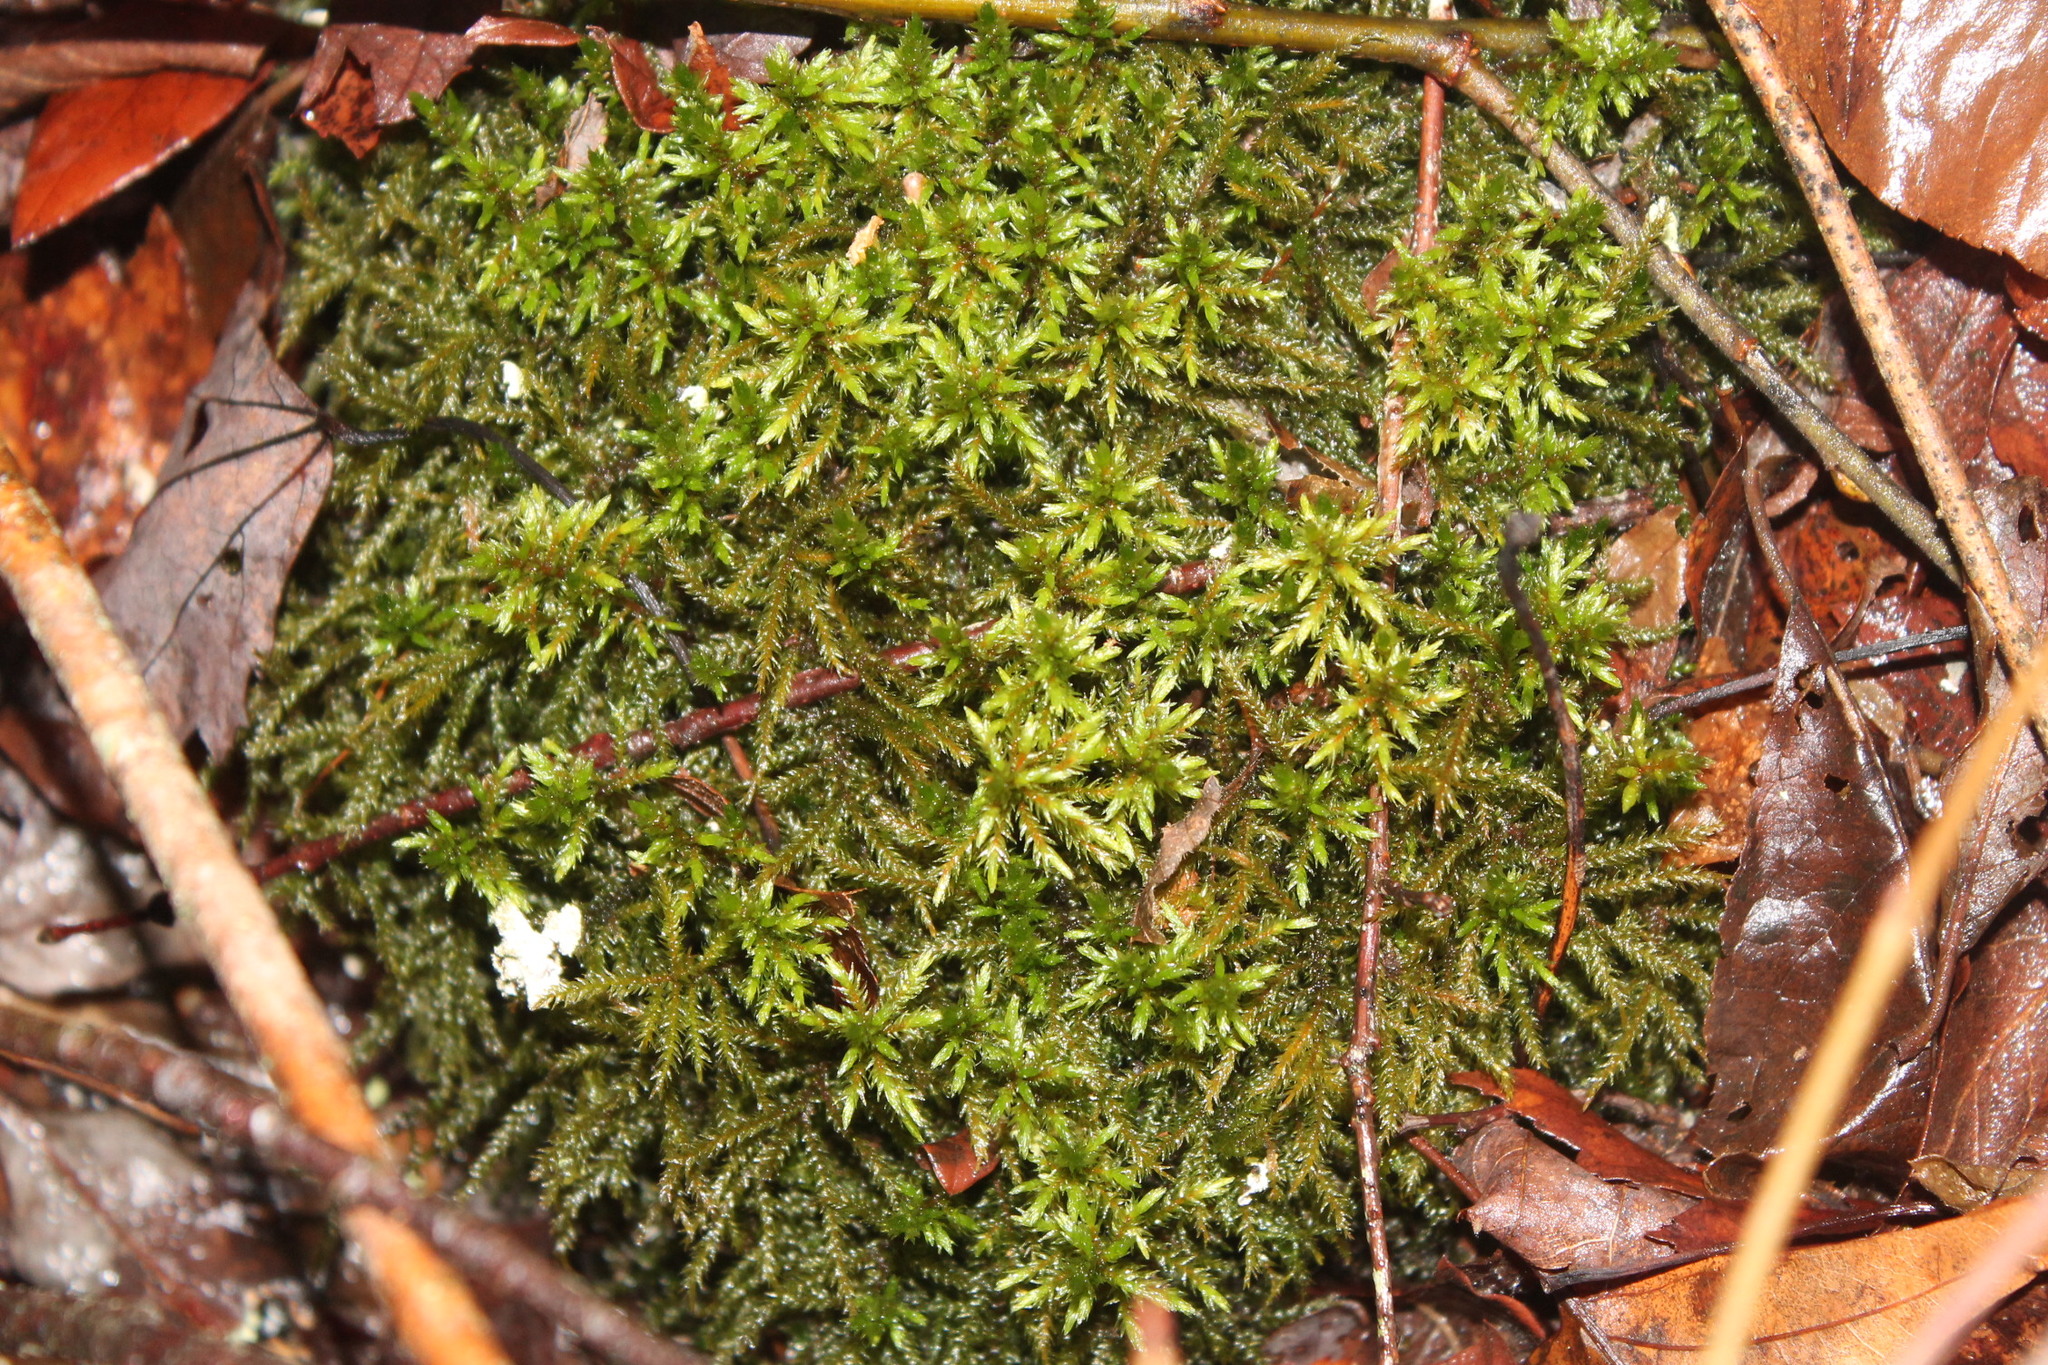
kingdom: Plantae
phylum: Bryophyta
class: Bryopsida
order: Hypnales
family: Climaciaceae
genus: Climacium
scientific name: Climacium americanum
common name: American tree moss
